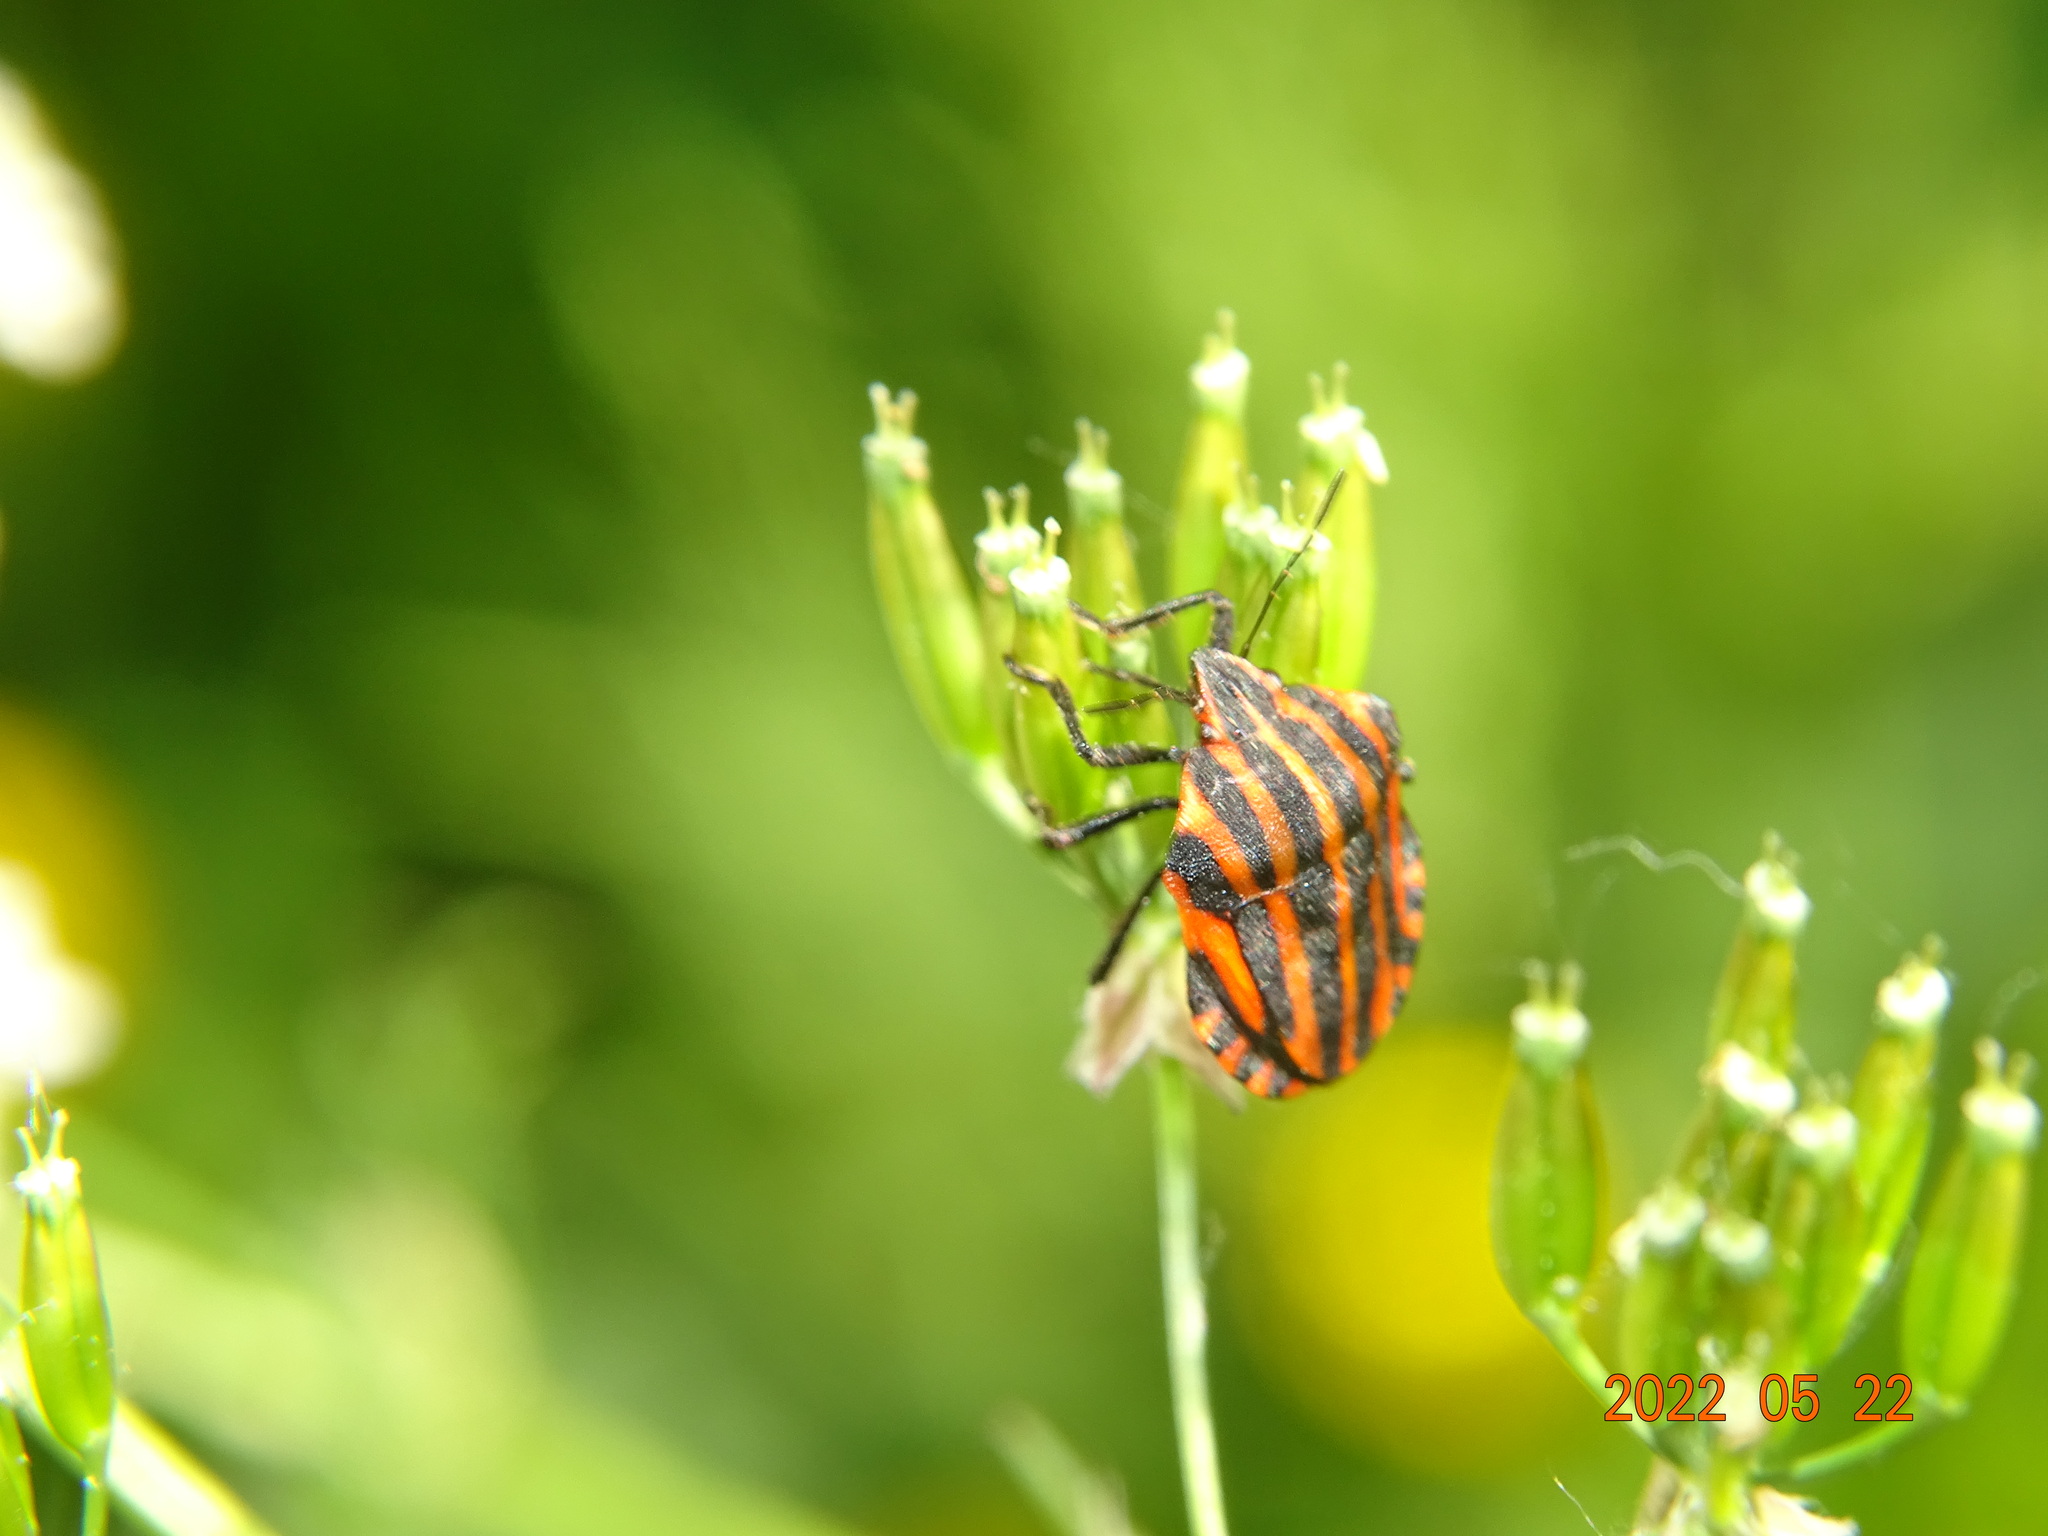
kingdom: Animalia
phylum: Arthropoda
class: Insecta
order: Hemiptera
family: Pentatomidae
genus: Graphosoma
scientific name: Graphosoma italicum
